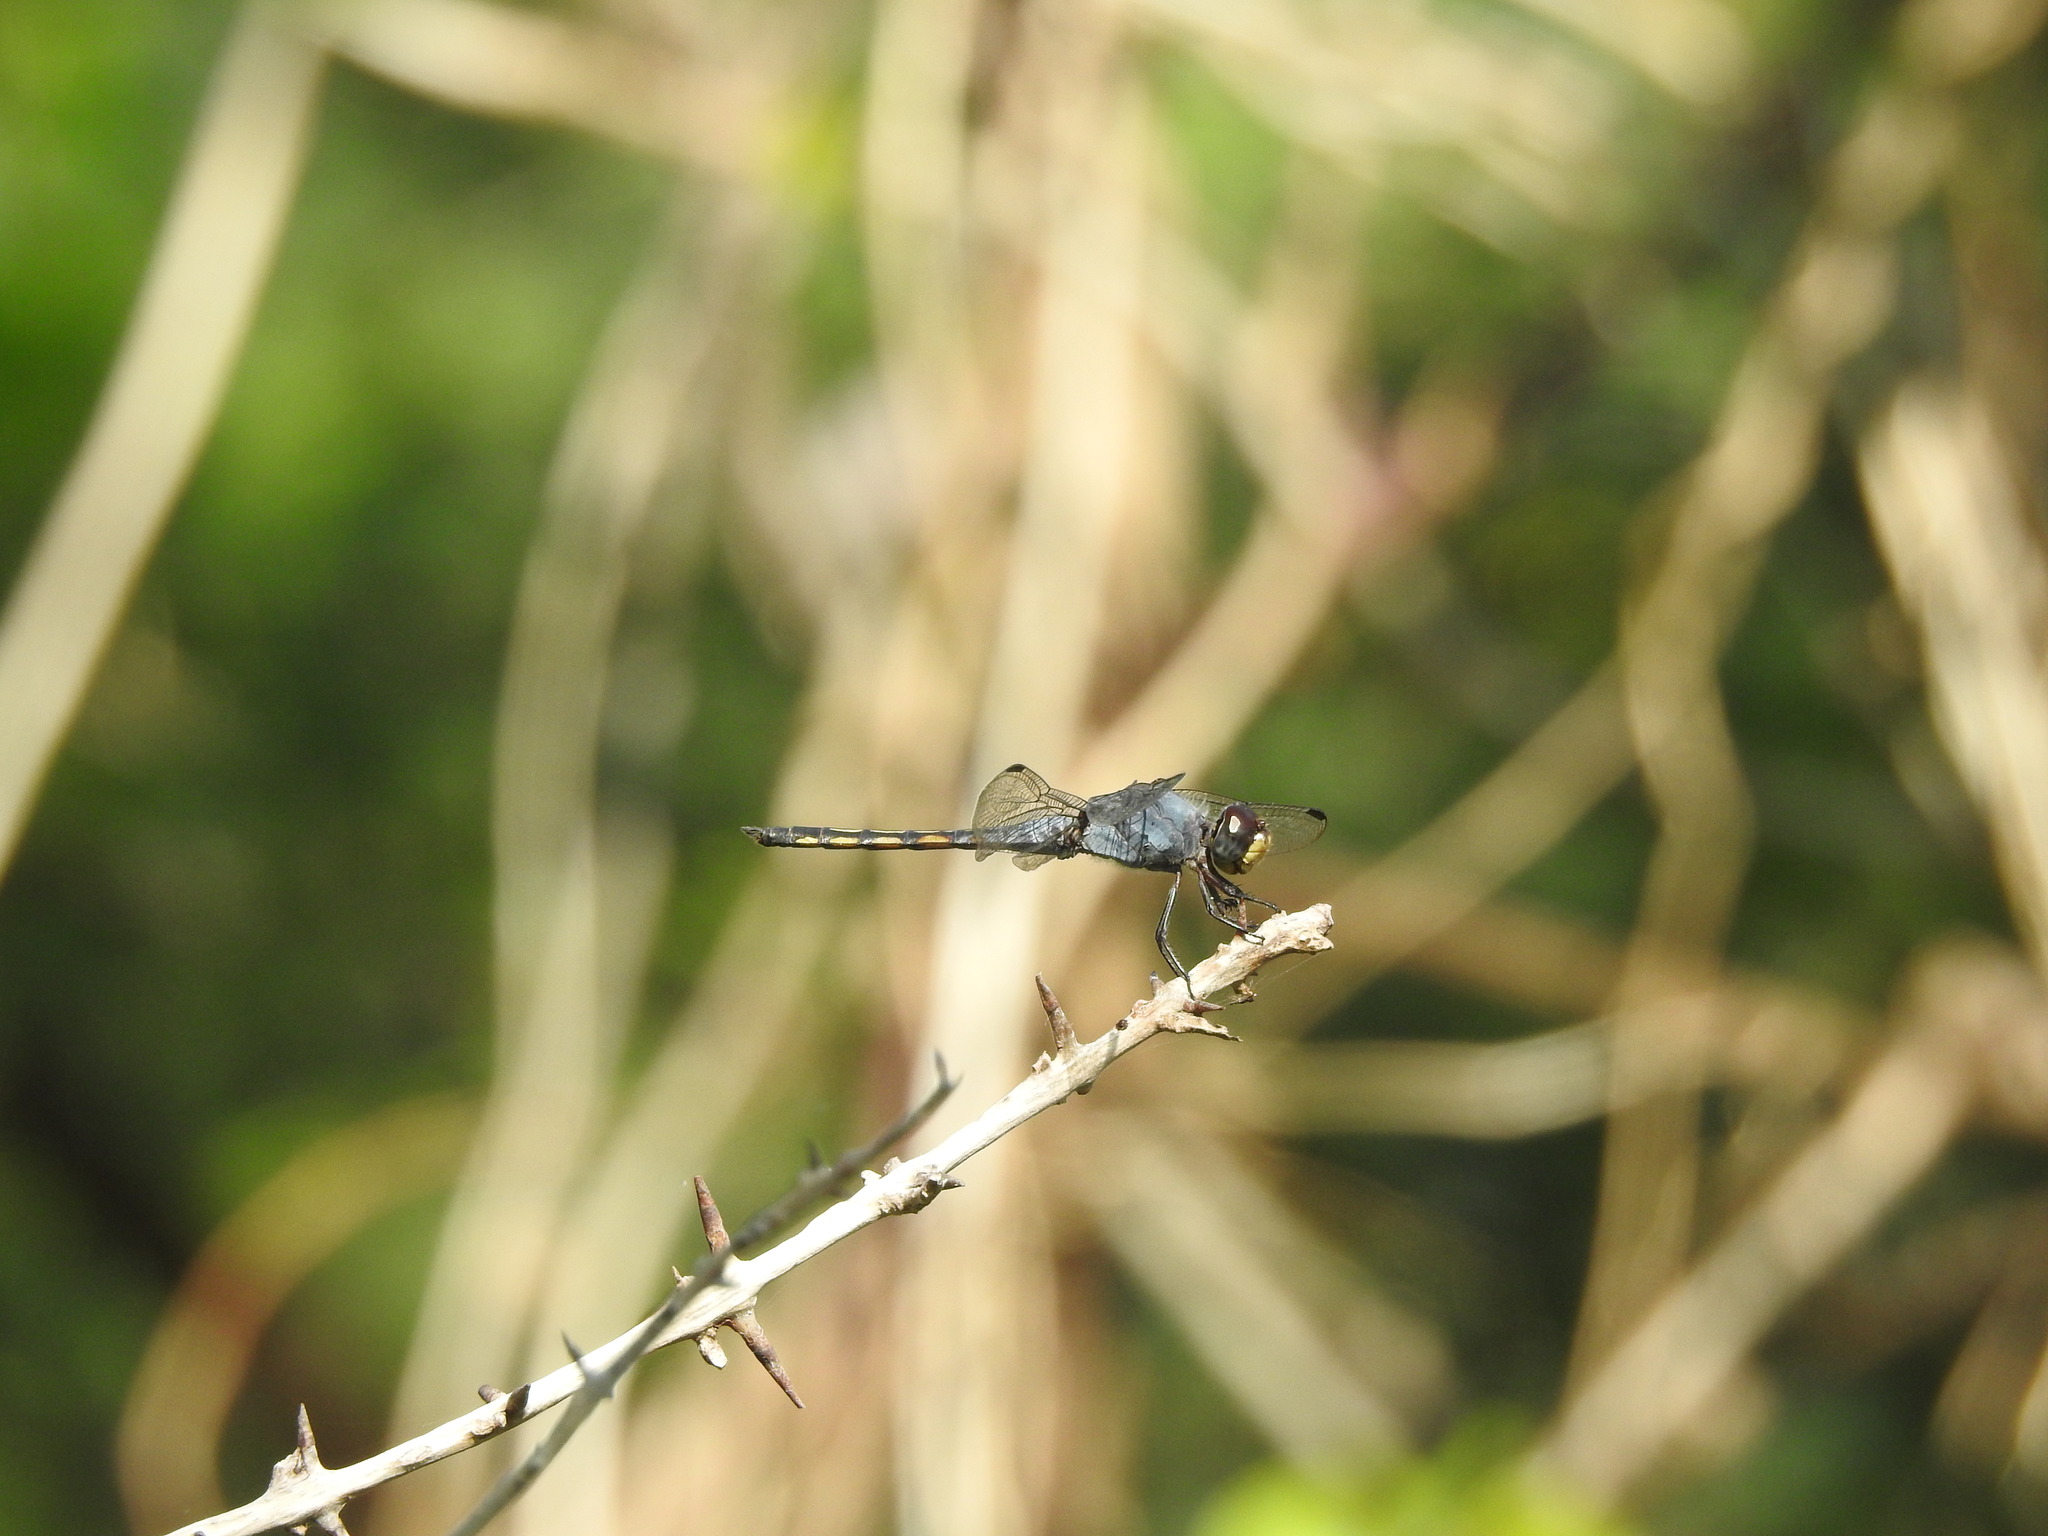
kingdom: Animalia
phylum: Arthropoda
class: Insecta
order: Odonata
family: Libellulidae
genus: Potamarcha
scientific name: Potamarcha congener
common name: Blue chaser
